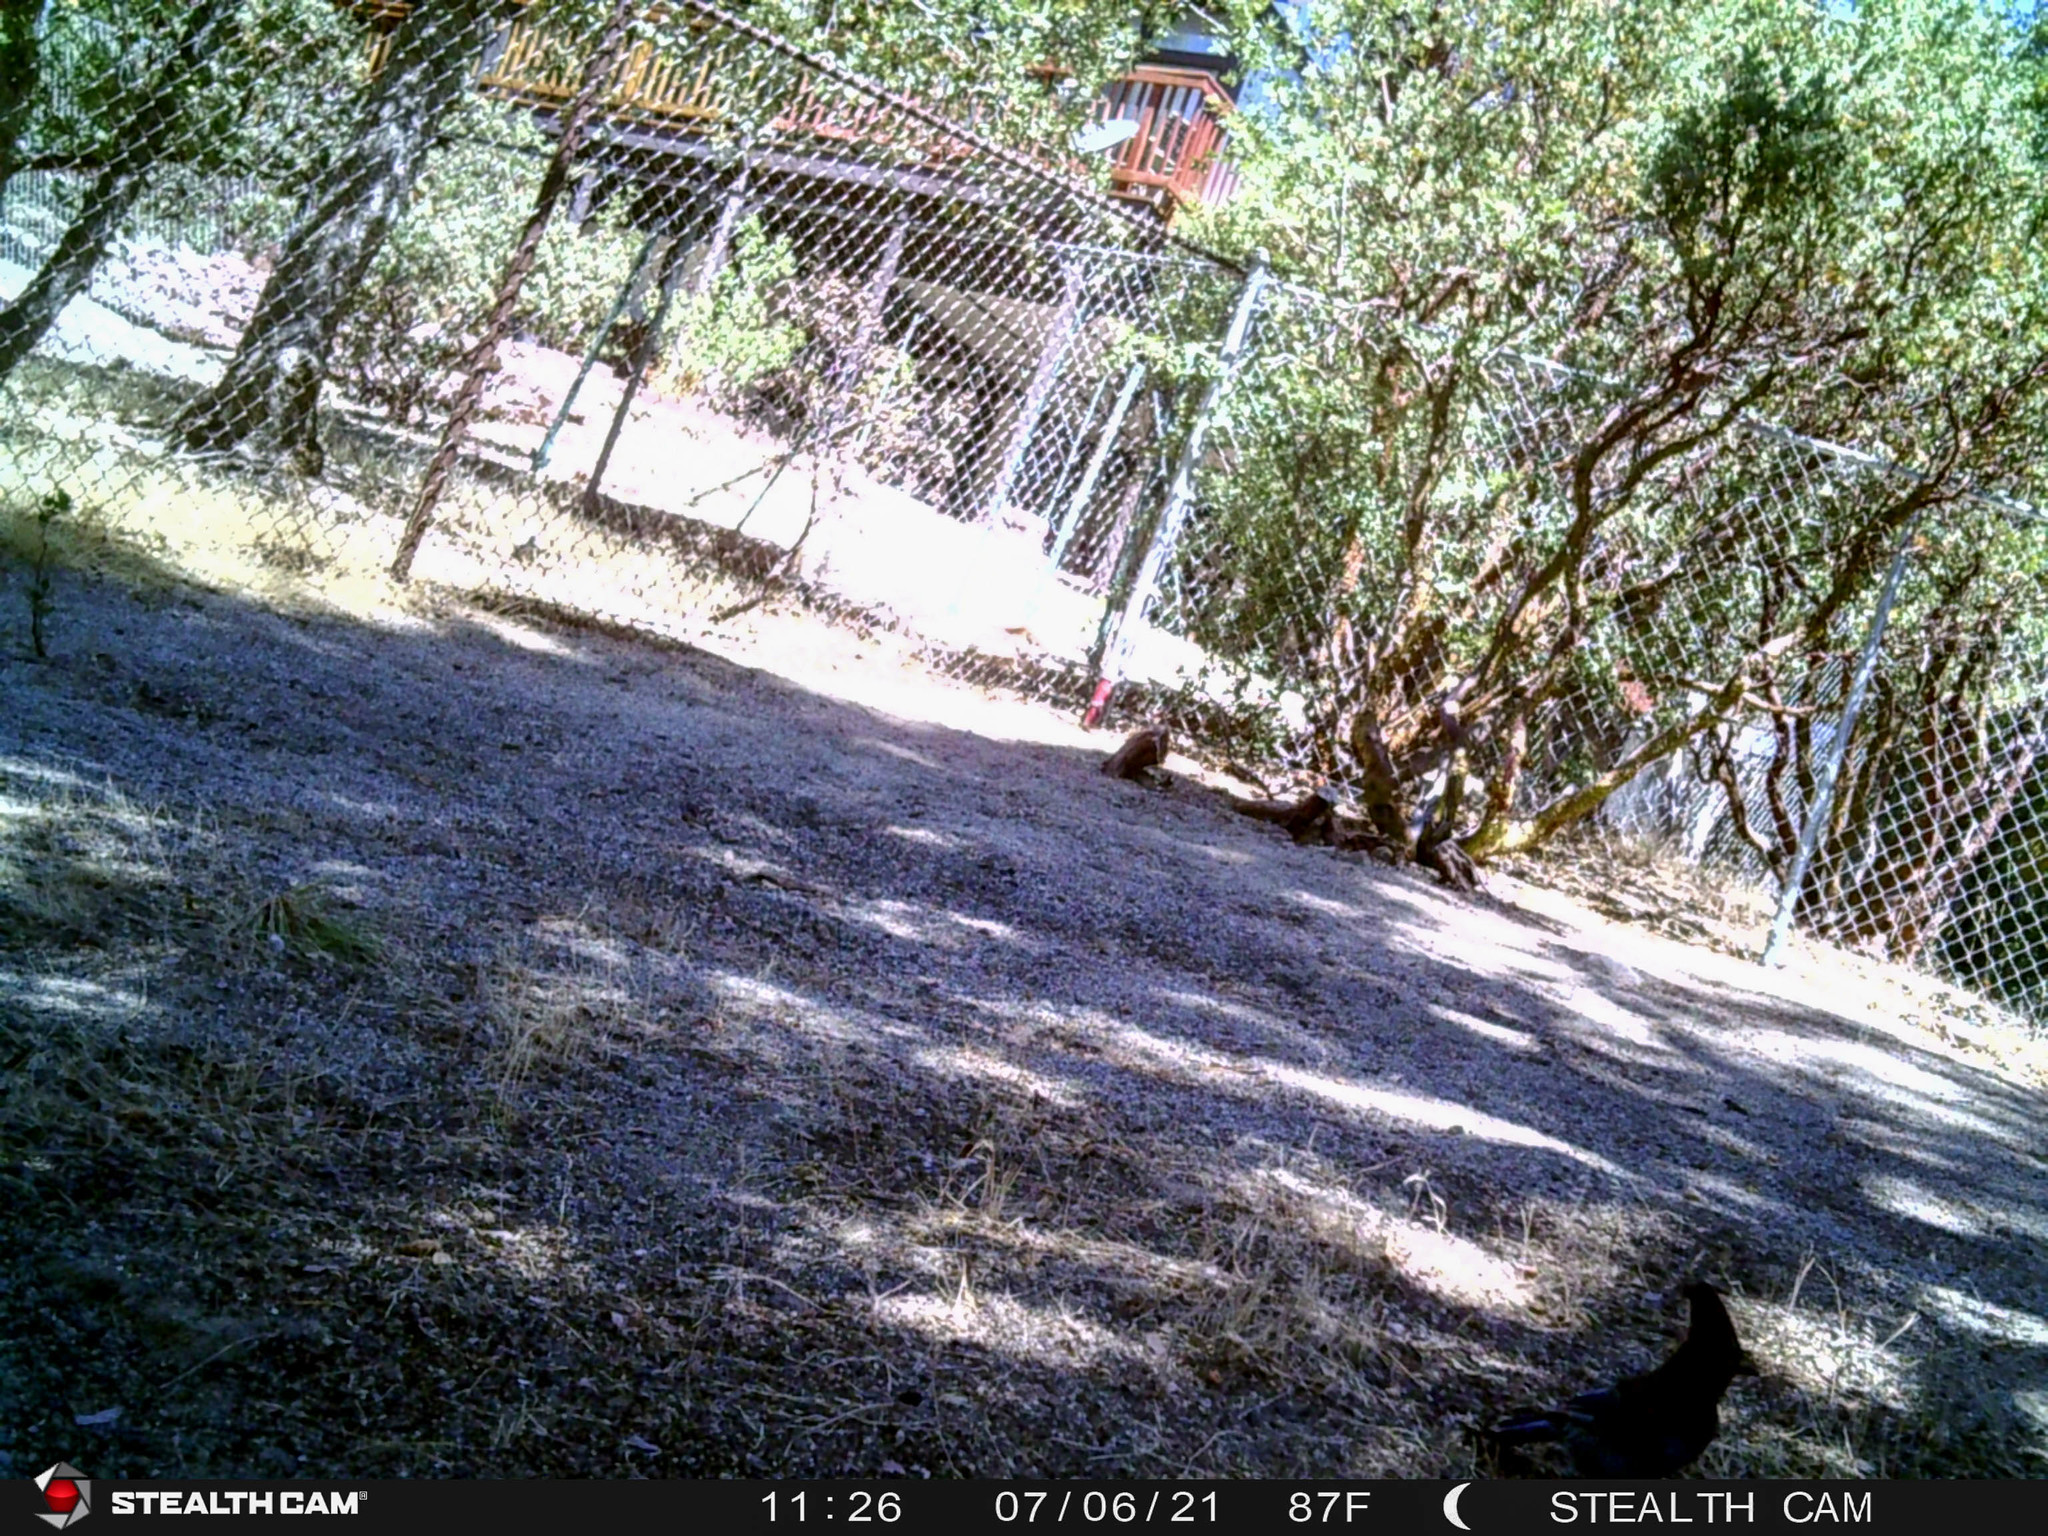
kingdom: Animalia
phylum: Chordata
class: Aves
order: Passeriformes
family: Corvidae
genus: Cyanocitta
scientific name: Cyanocitta stelleri
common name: Steller's jay
